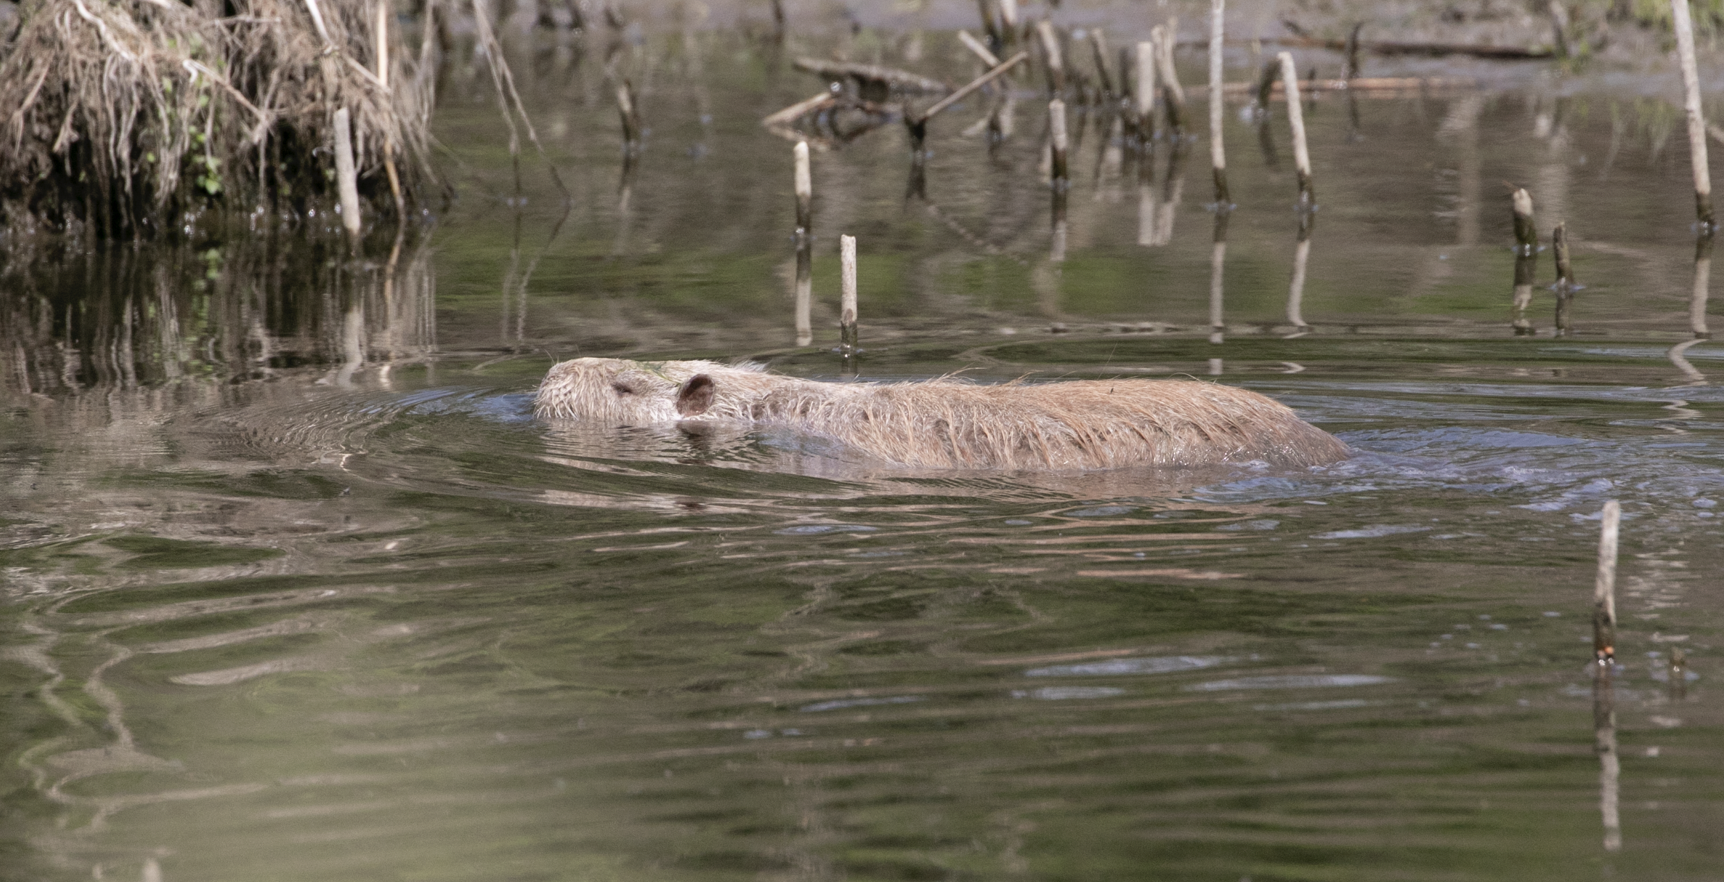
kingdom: Animalia
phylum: Chordata
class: Mammalia
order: Rodentia
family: Myocastoridae
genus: Myocastor
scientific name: Myocastor coypus
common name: Coypu
